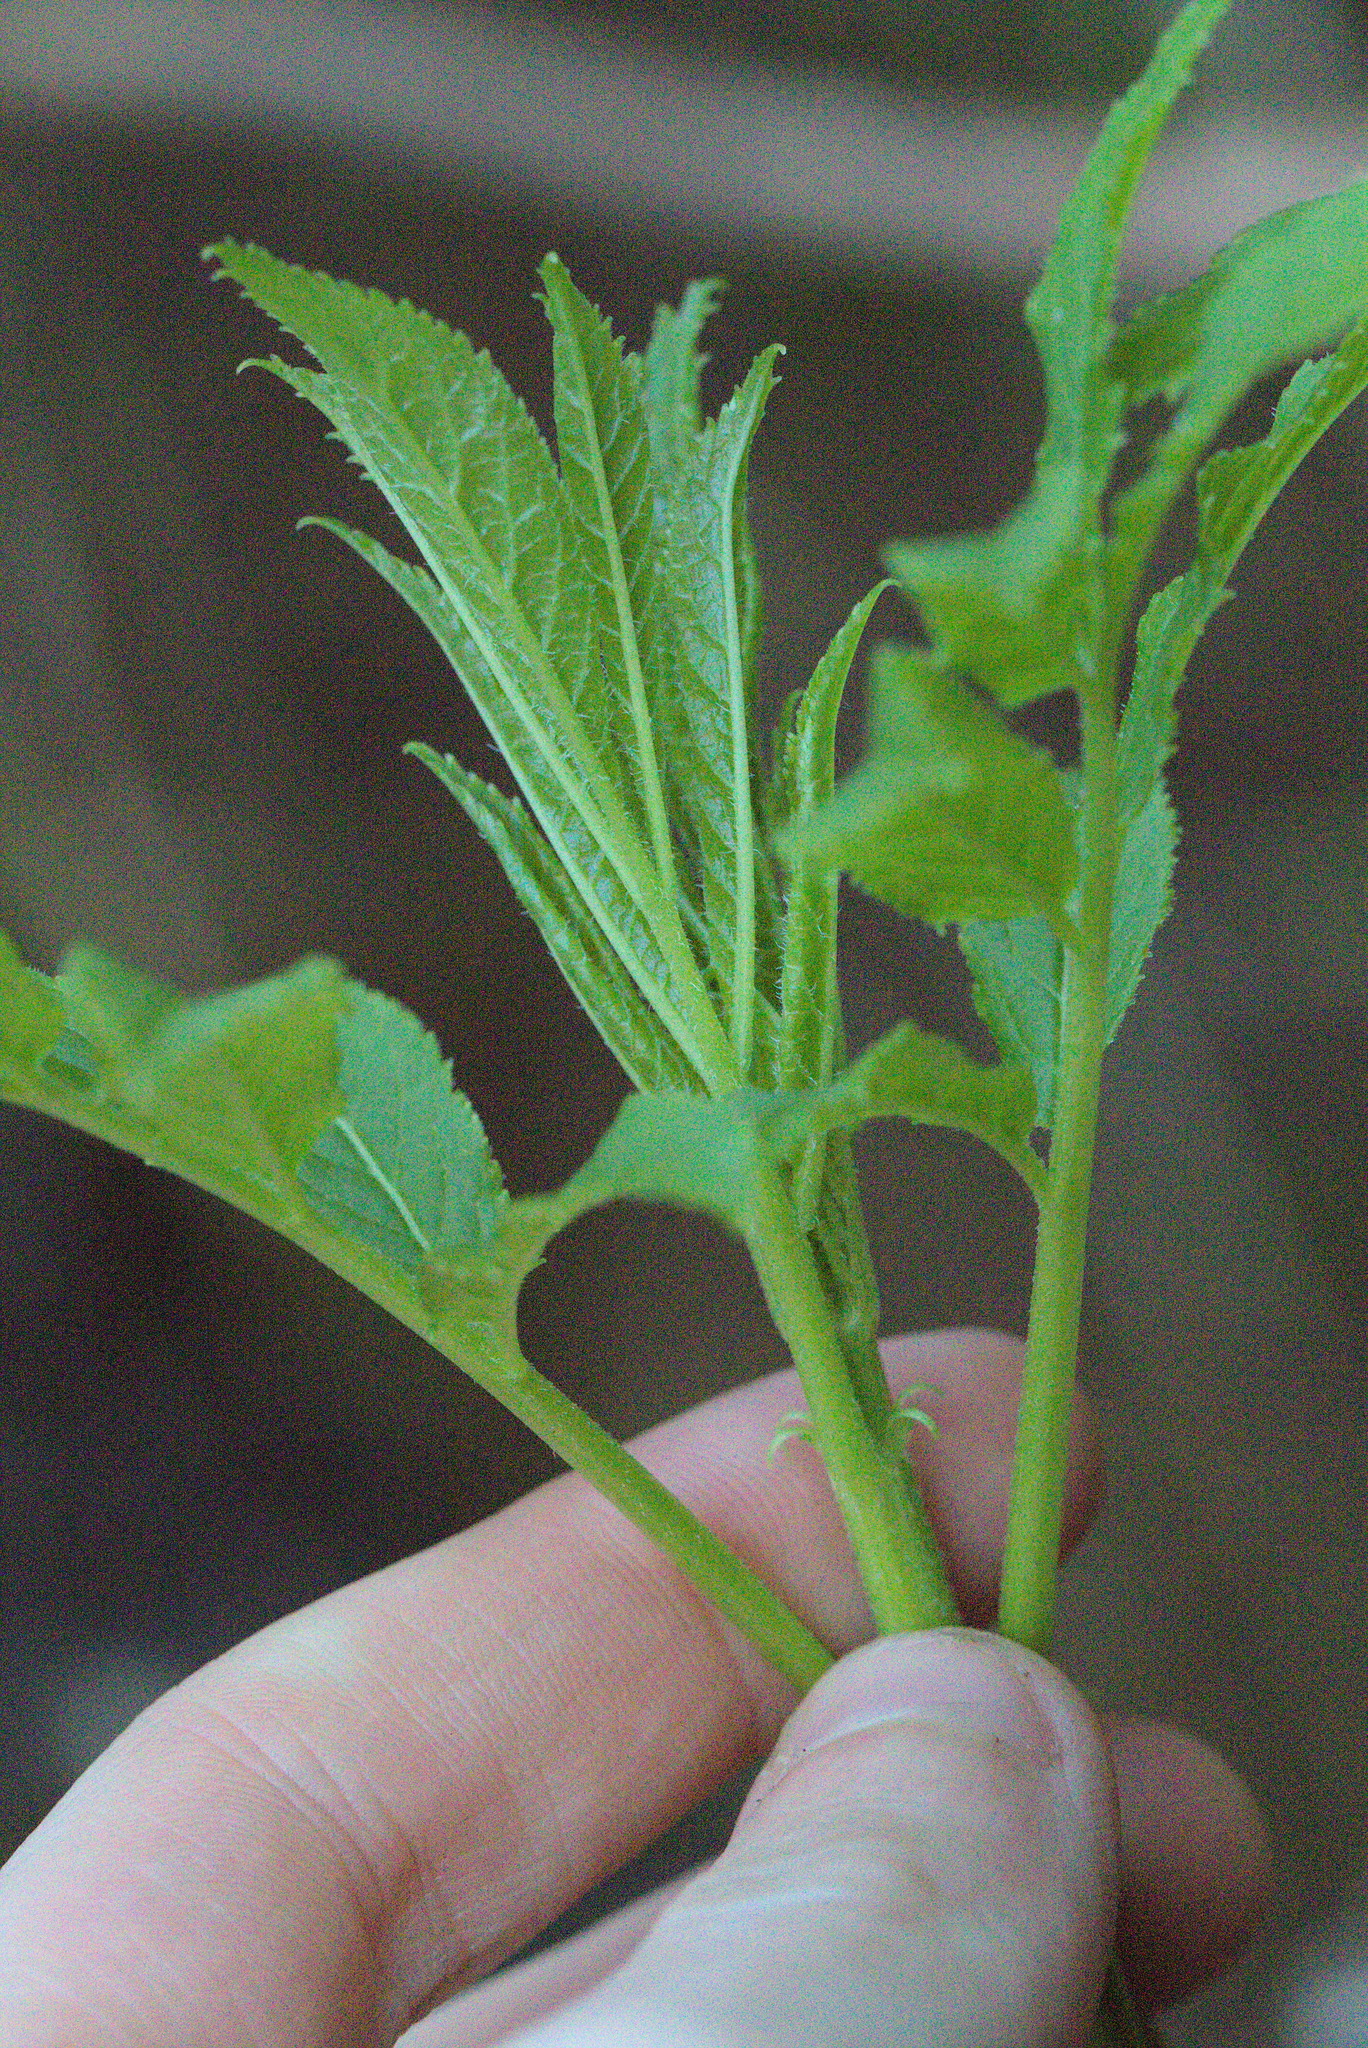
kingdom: Plantae
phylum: Tracheophyta
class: Magnoliopsida
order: Dipsacales
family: Viburnaceae
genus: Sambucus
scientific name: Sambucus racemosa
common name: Red-berried elder
